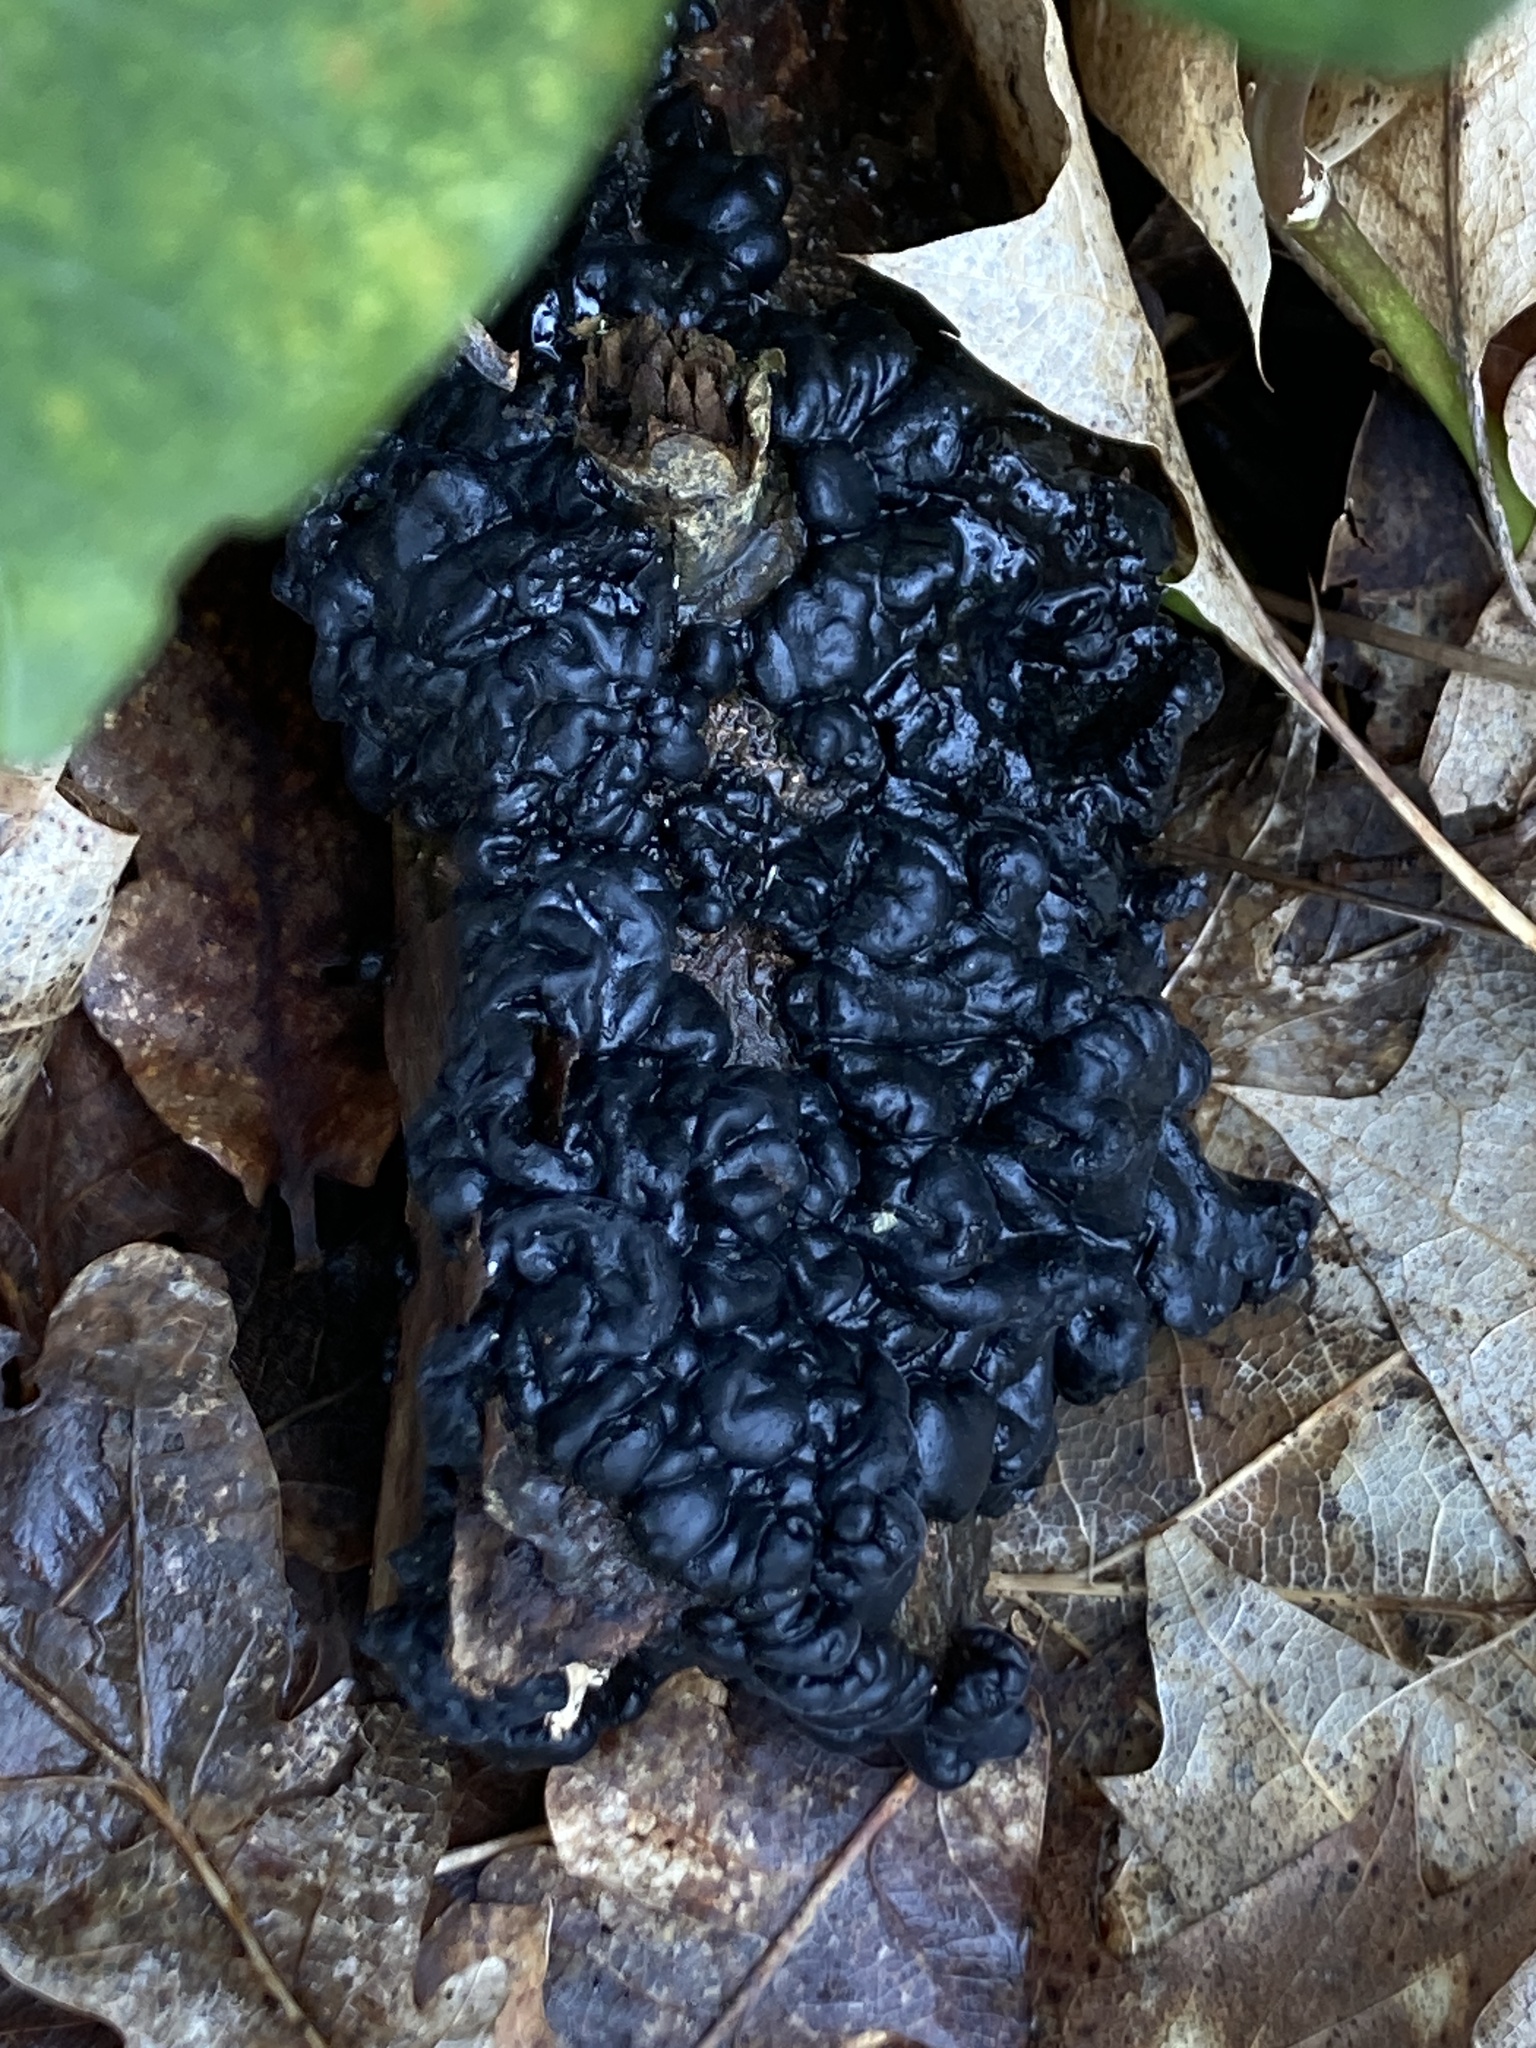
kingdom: Fungi
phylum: Basidiomycota
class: Agaricomycetes
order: Auriculariales
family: Auriculariaceae
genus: Exidia
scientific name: Exidia glandulosa
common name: Witches' butter
